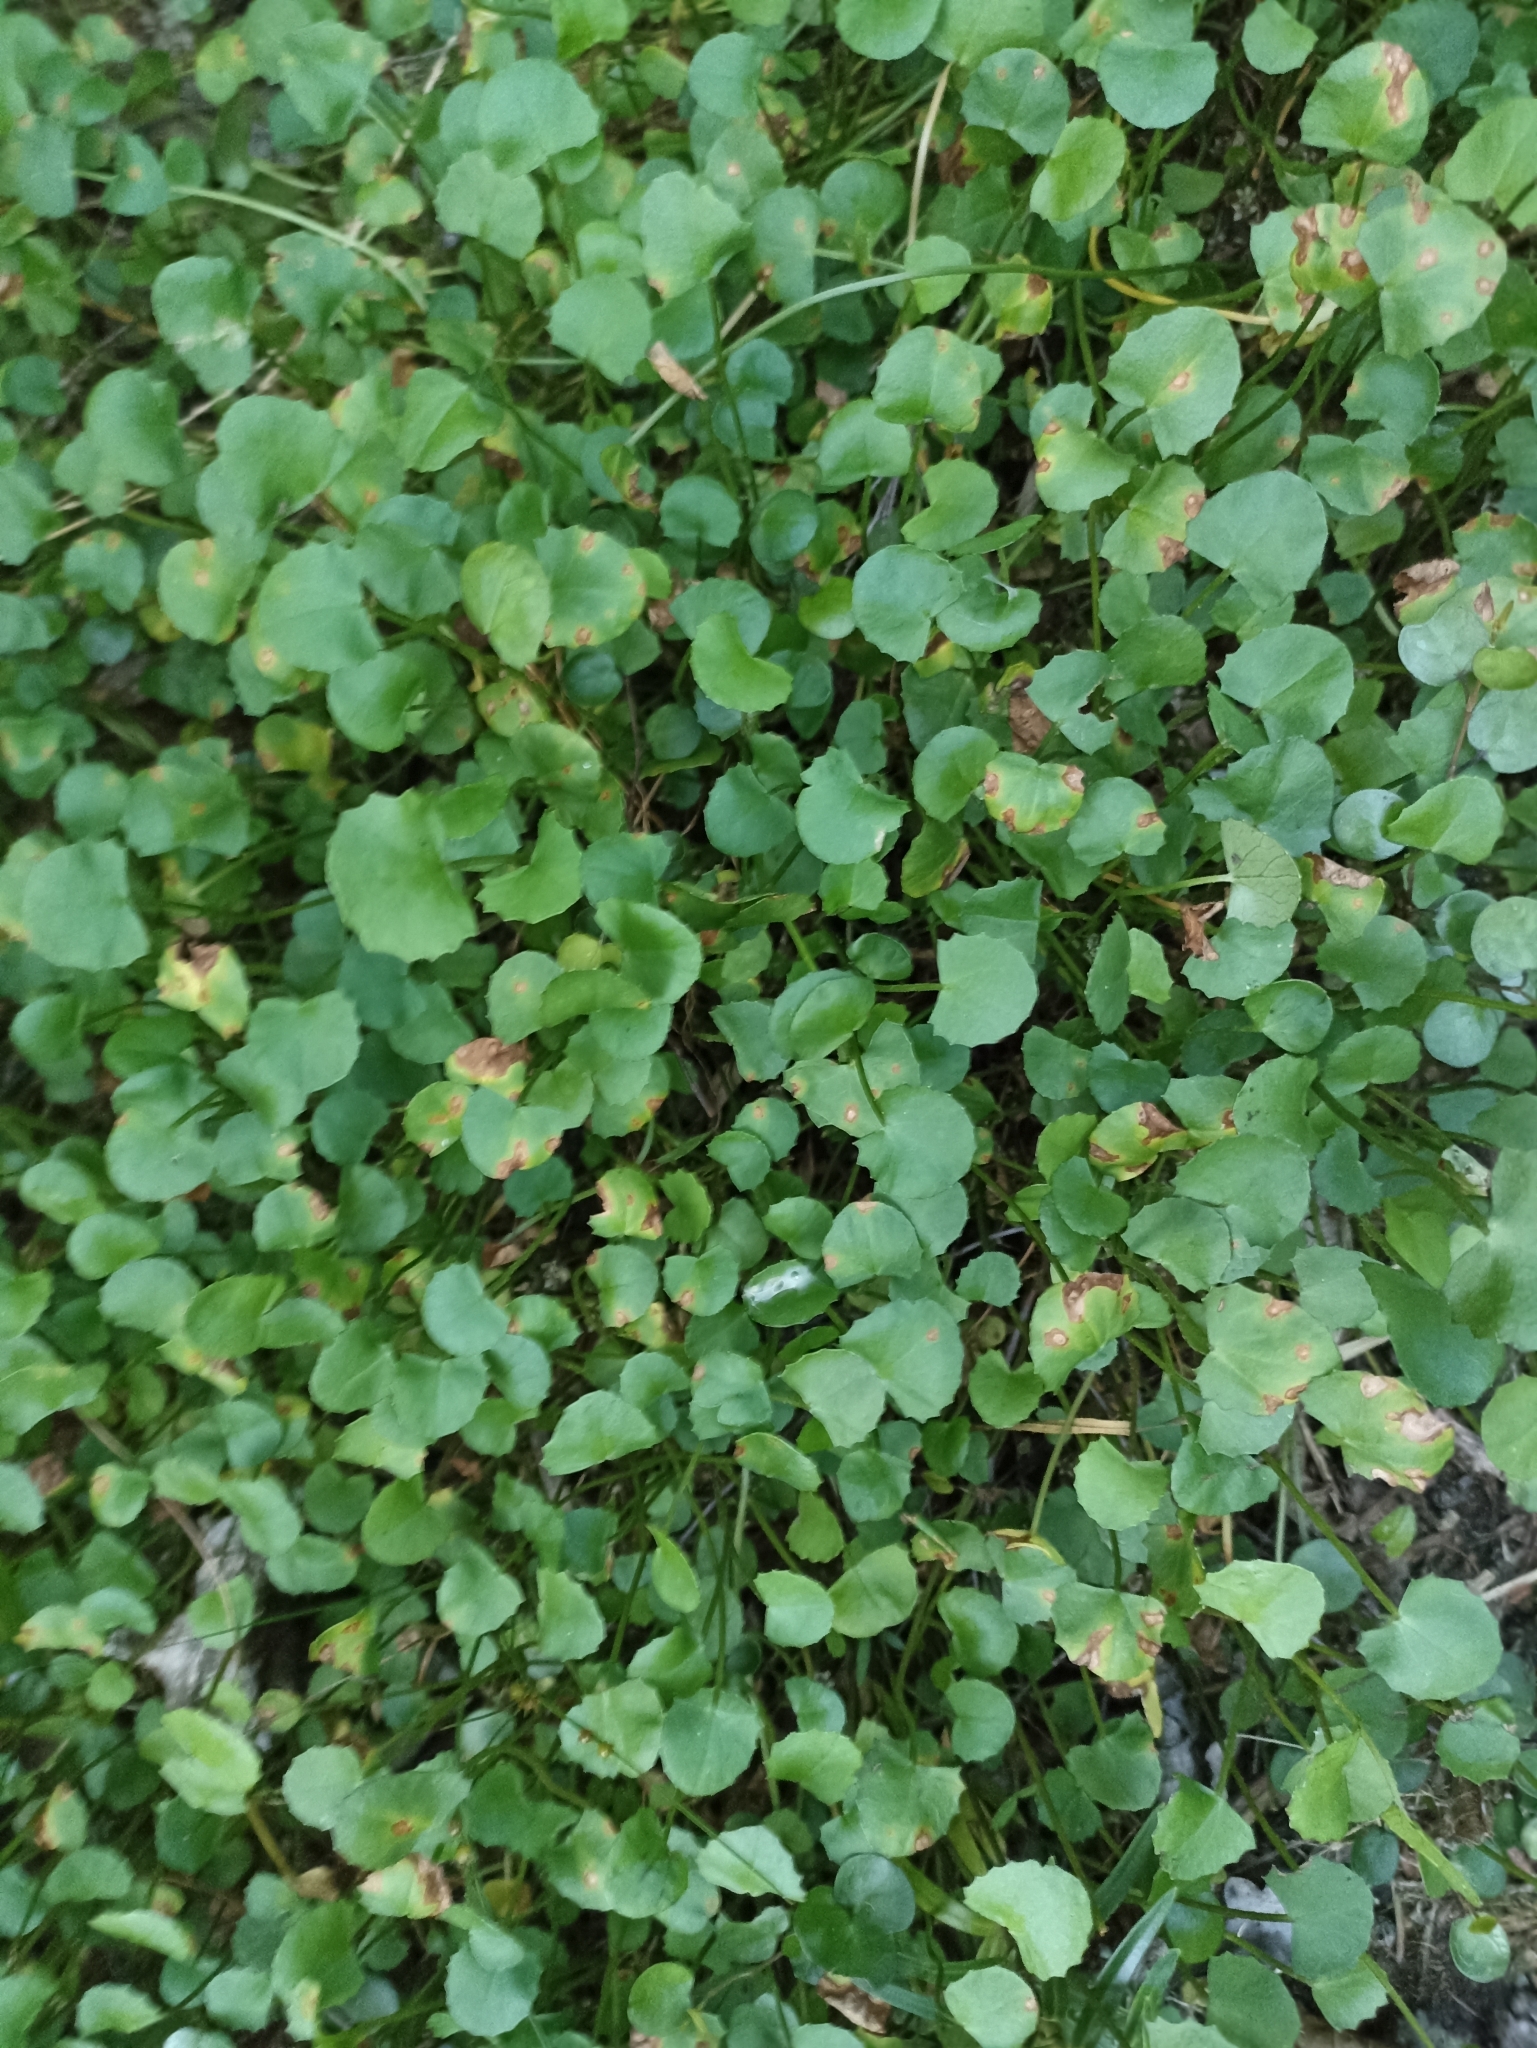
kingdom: Plantae
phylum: Tracheophyta
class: Magnoliopsida
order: Apiales
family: Apiaceae
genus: Centella
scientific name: Centella uniflora
